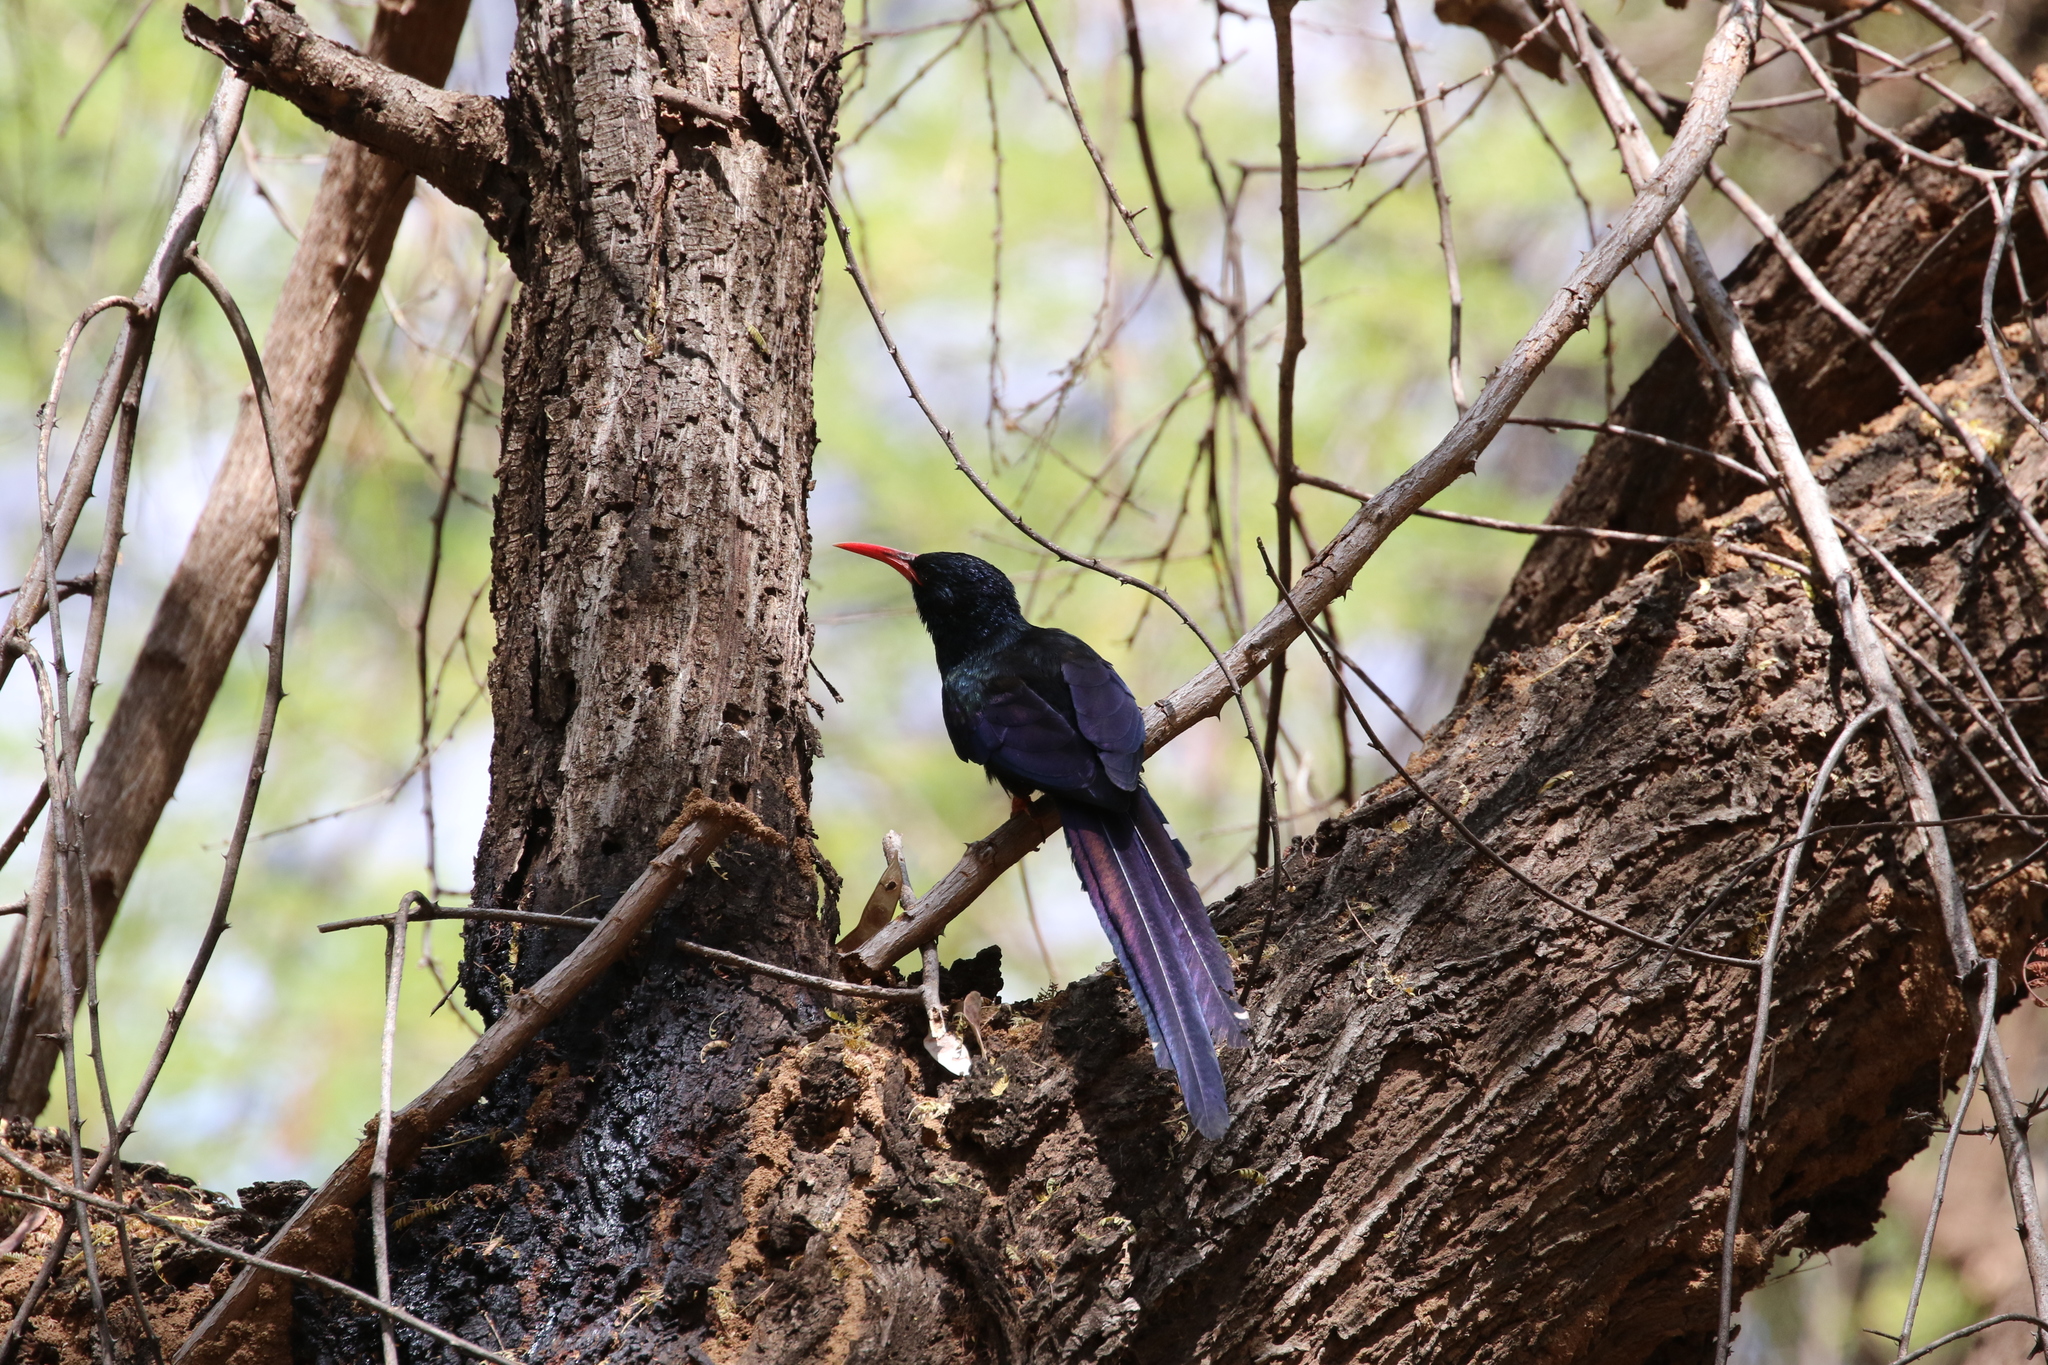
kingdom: Animalia
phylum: Chordata
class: Aves
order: Bucerotiformes
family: Phoeniculidae
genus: Phoeniculus
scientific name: Phoeniculus purpureus
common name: Green woodhoopoe
